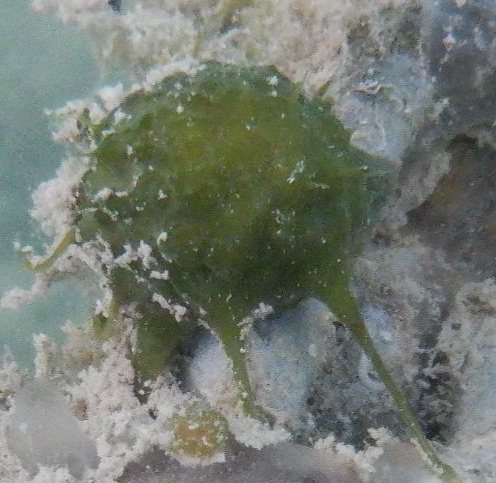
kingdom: Animalia
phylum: Porifera
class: Demospongiae
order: Tethyida
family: Tethyidae
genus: Tethya
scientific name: Tethya actinia
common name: Tangerine sponge
